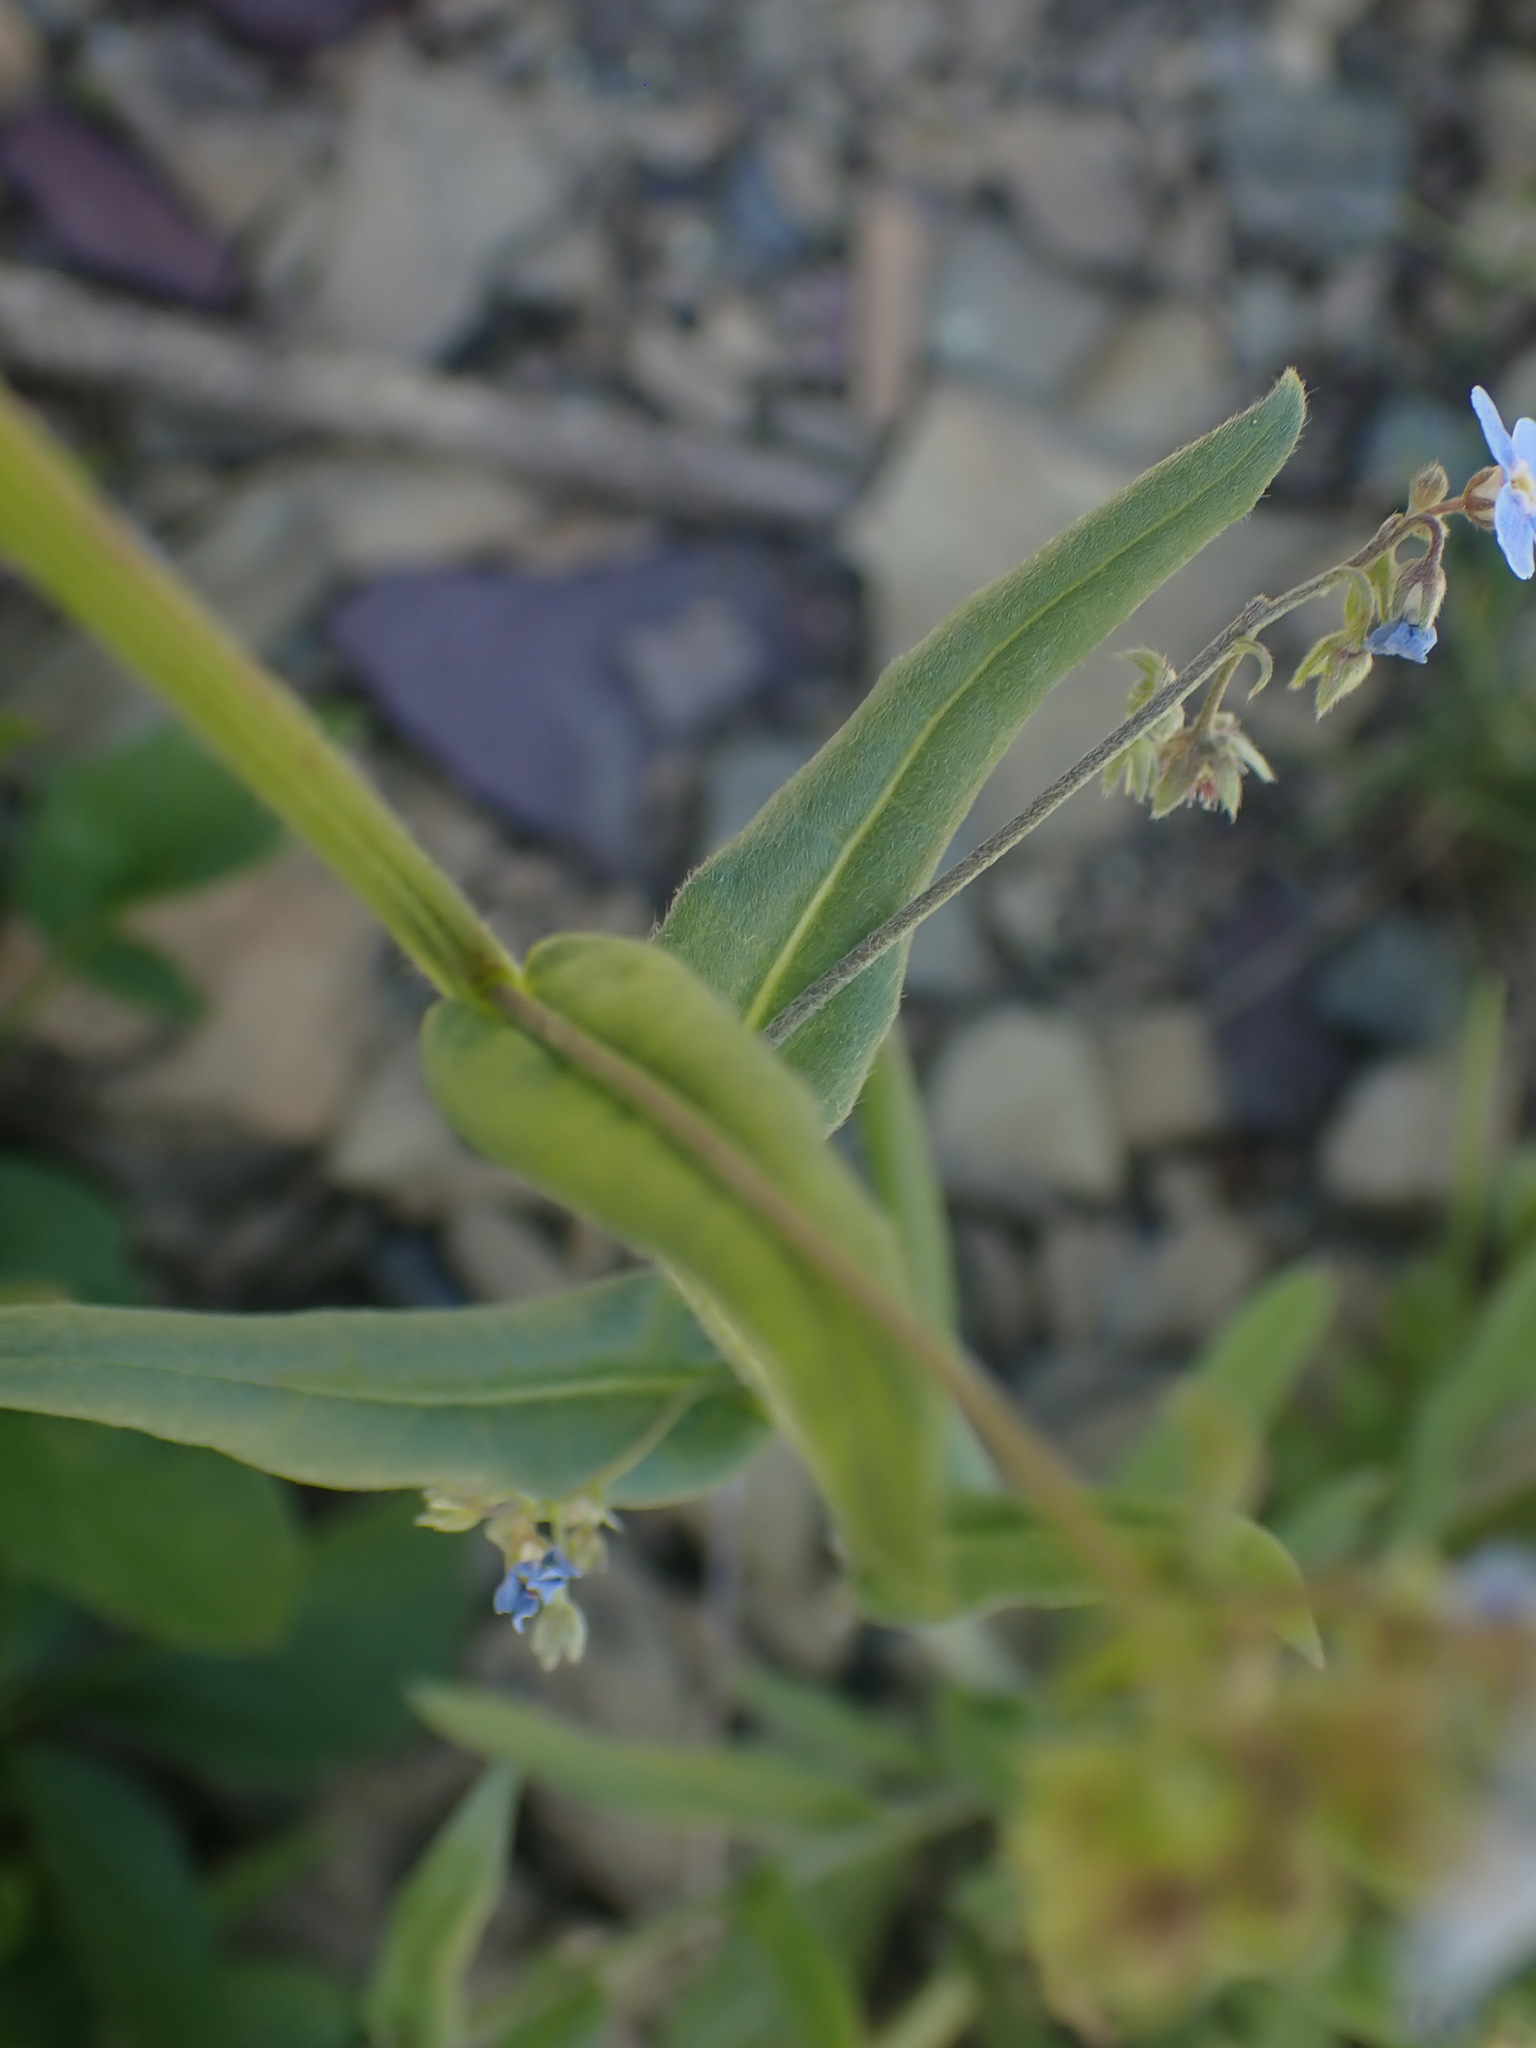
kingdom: Plantae
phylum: Tracheophyta
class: Magnoliopsida
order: Boraginales
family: Boraginaceae
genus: Hackelia
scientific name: Hackelia micrantha
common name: Meadow stickseed
